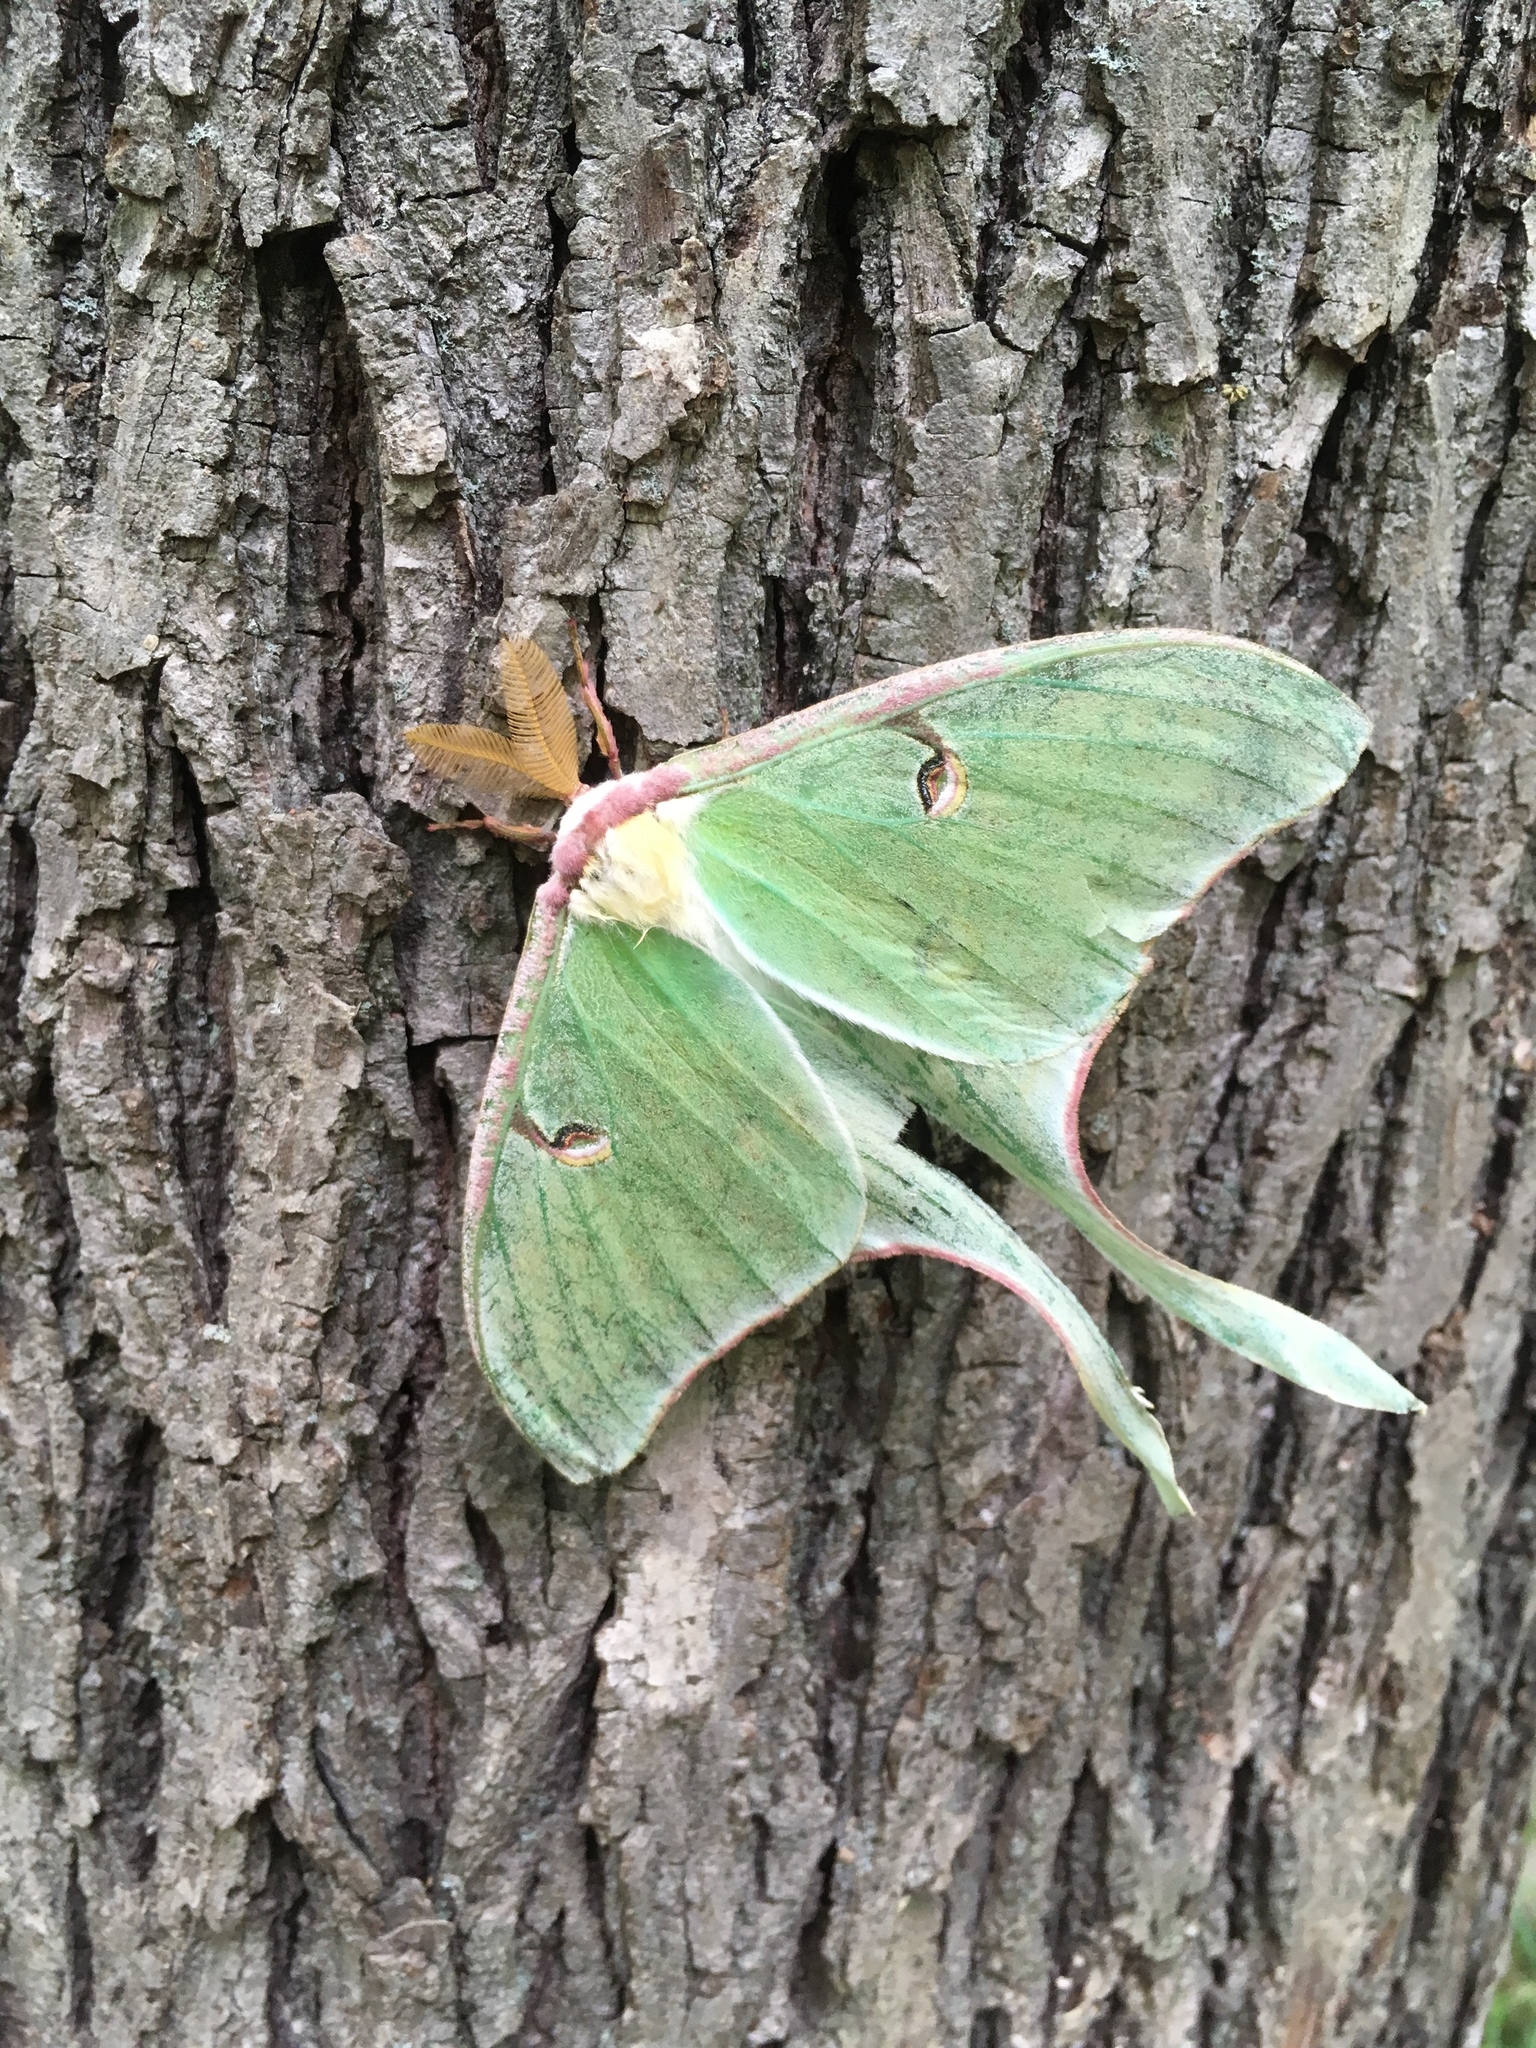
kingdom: Animalia
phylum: Arthropoda
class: Insecta
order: Lepidoptera
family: Saturniidae
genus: Actias
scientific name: Actias luna
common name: Luna moth
